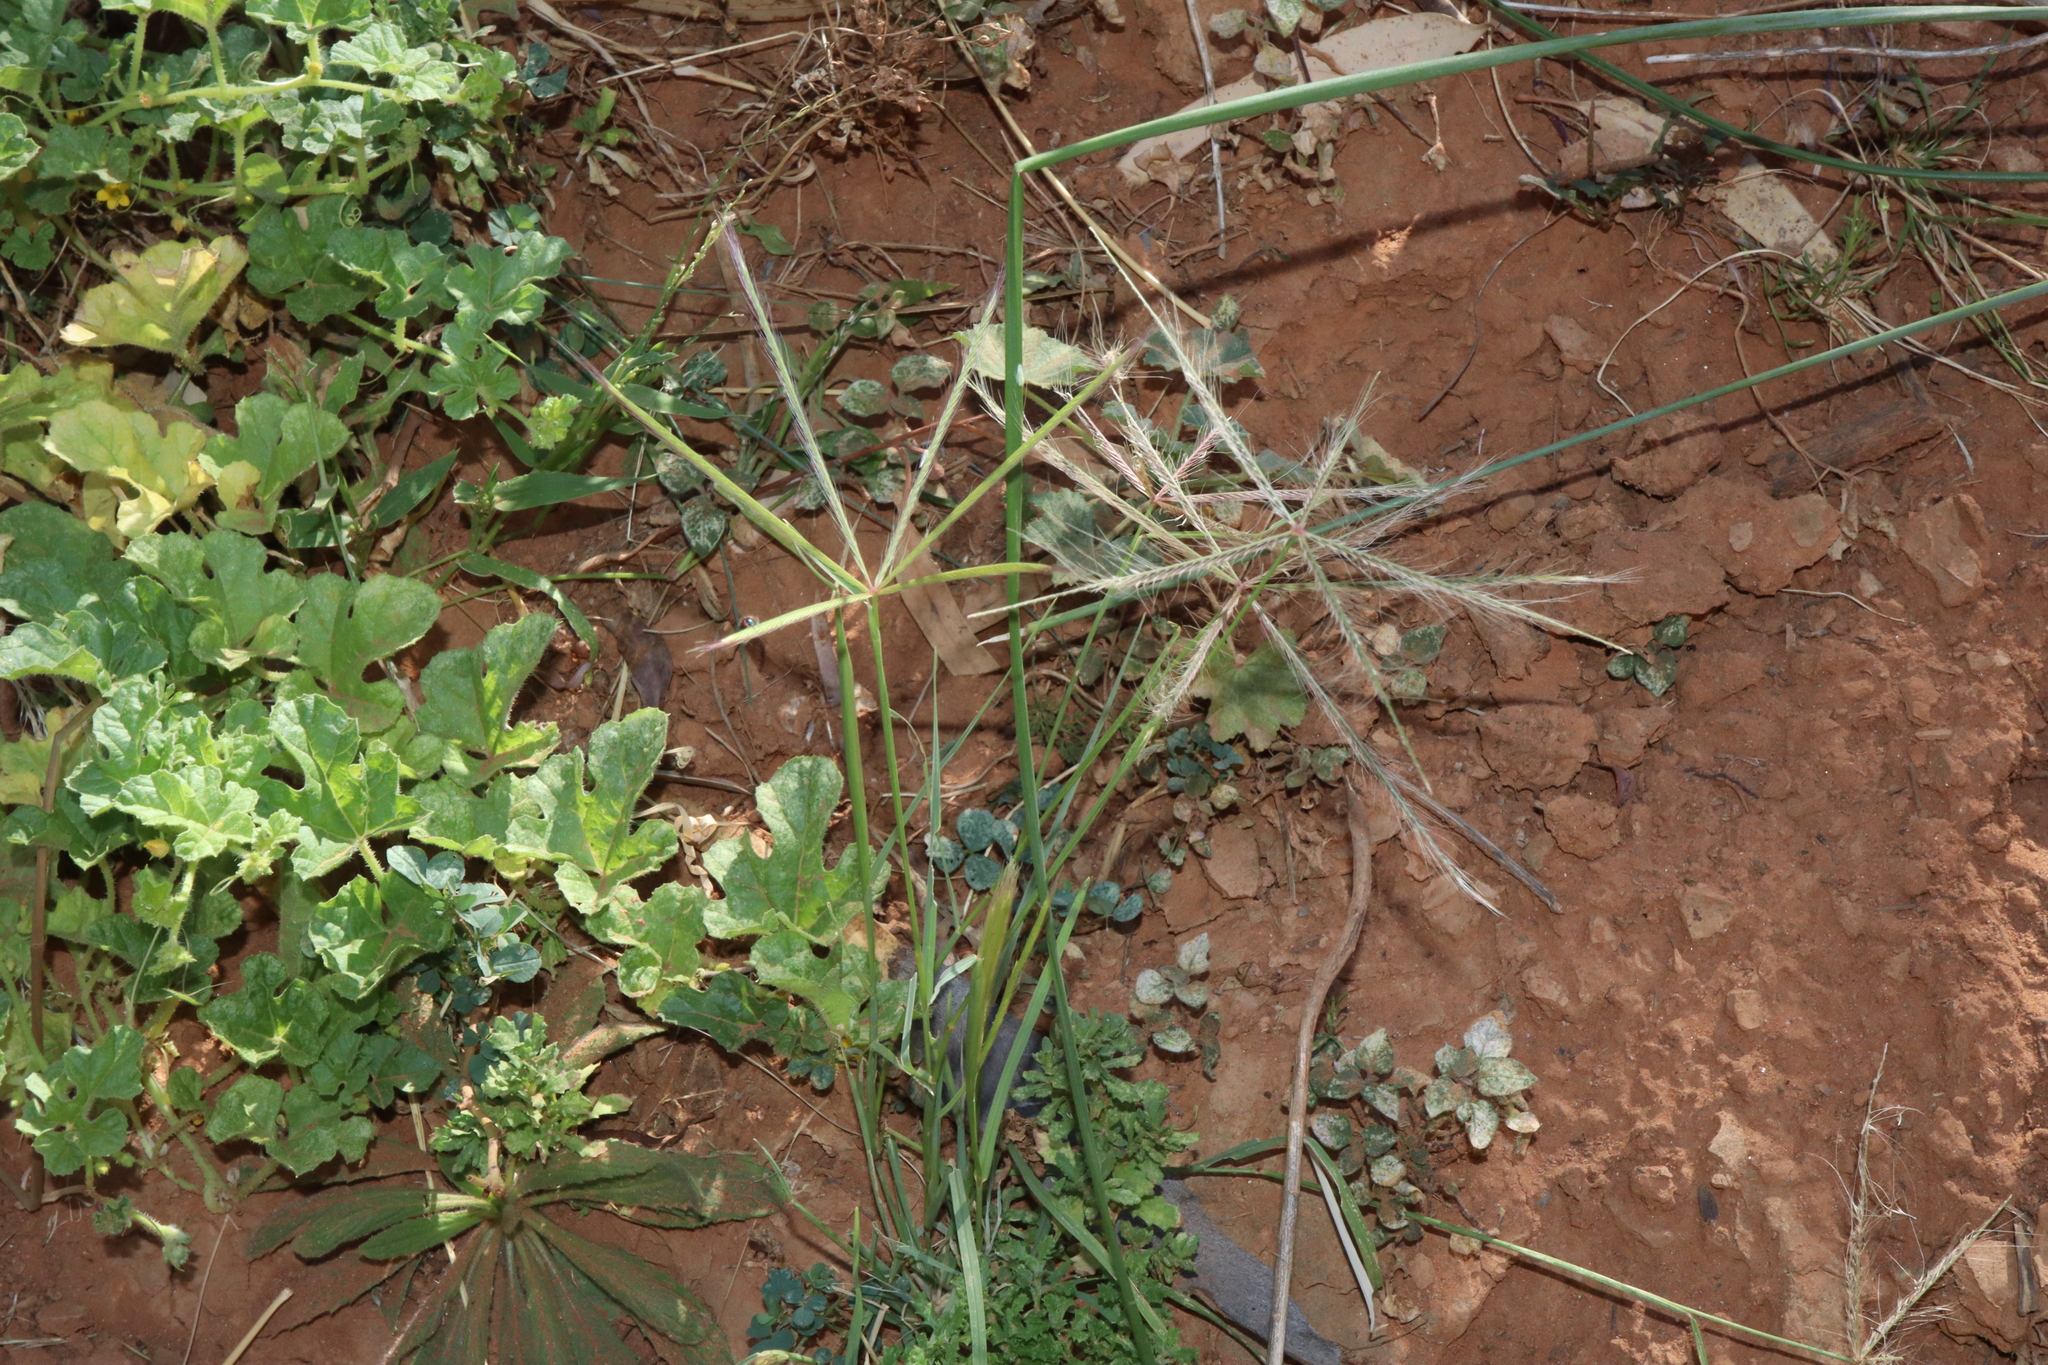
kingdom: Plantae
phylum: Tracheophyta
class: Liliopsida
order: Poales
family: Poaceae
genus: Enteropogon
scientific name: Enteropogon ramosus
